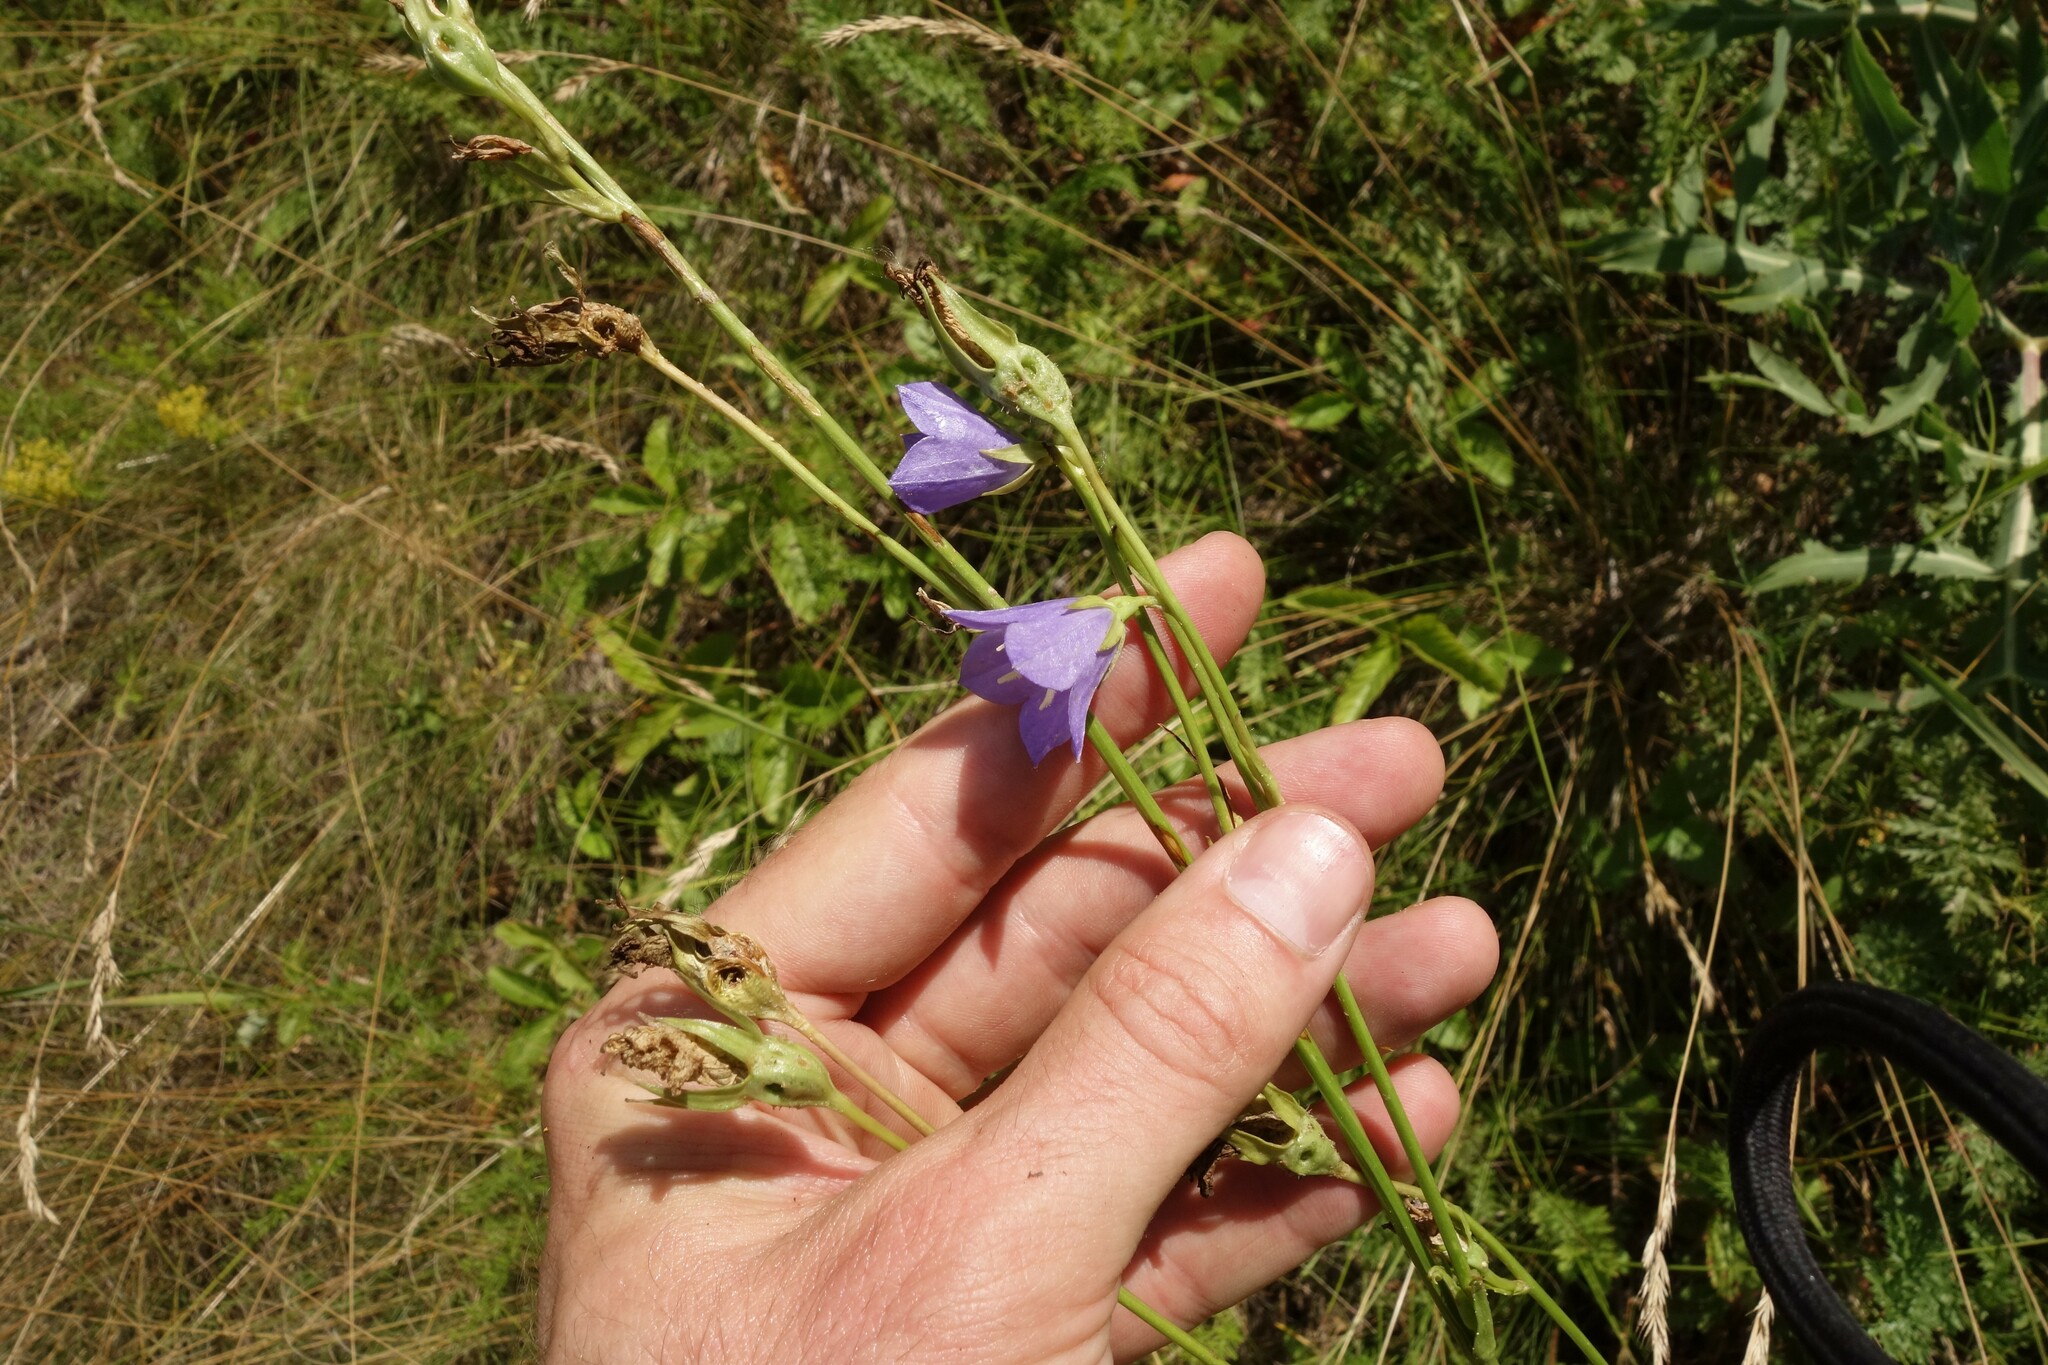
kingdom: Plantae
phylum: Tracheophyta
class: Magnoliopsida
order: Asterales
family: Campanulaceae
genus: Campanula
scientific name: Campanula persicifolia
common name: Peach-leaved bellflower
